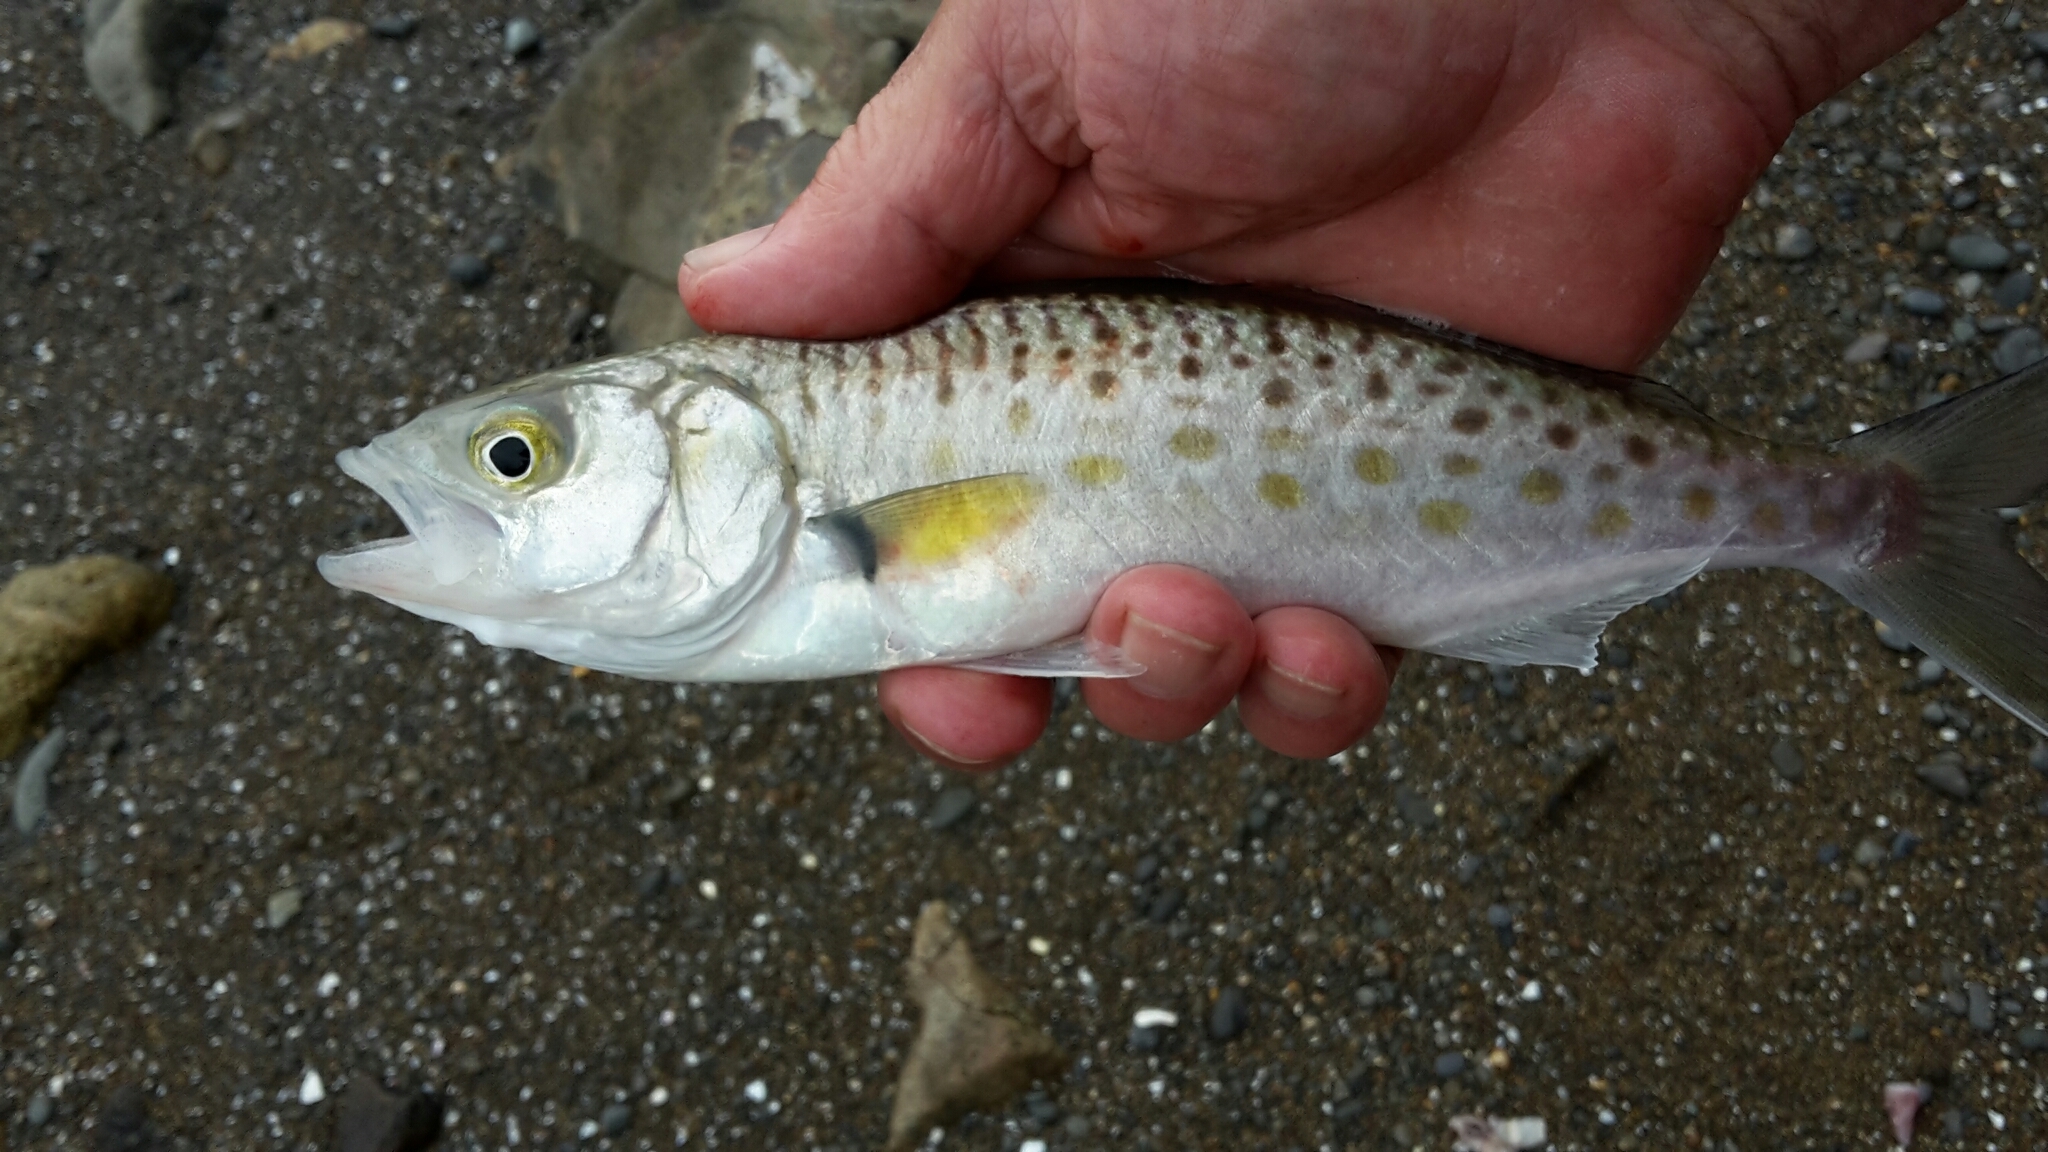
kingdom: Animalia
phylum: Chordata
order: Perciformes
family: Arripidae
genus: Arripis
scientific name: Arripis trutta
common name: Kahawai
